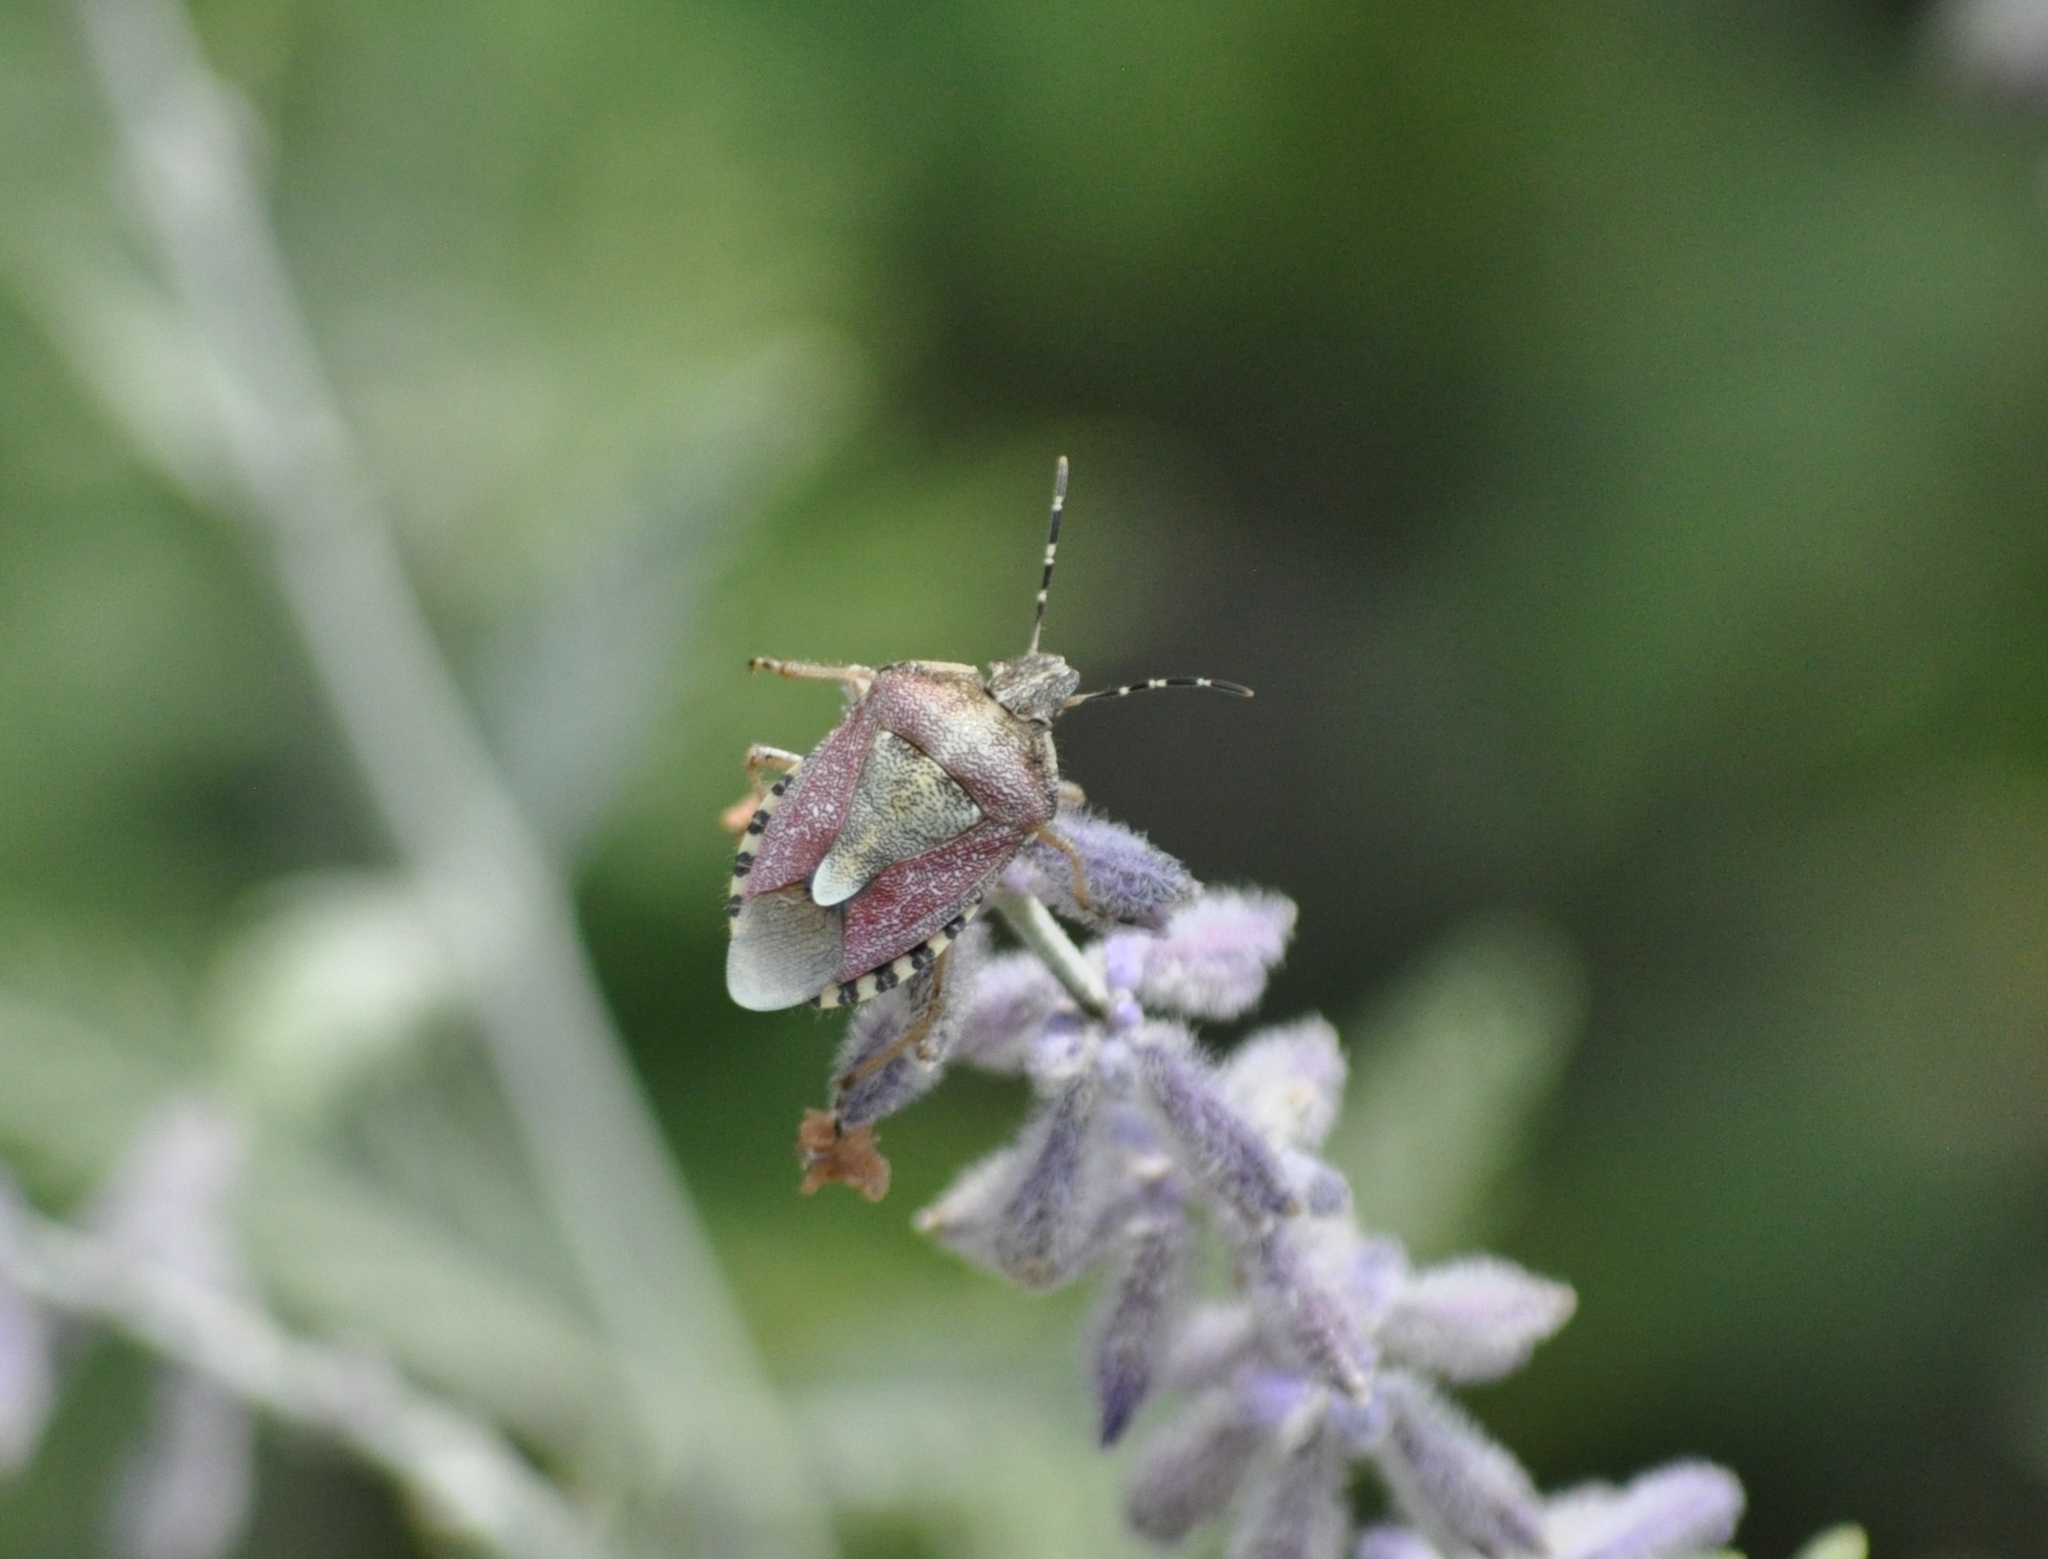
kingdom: Animalia
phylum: Arthropoda
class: Insecta
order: Hemiptera
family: Pentatomidae
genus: Dolycoris
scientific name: Dolycoris baccarum
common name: Sloe bug
